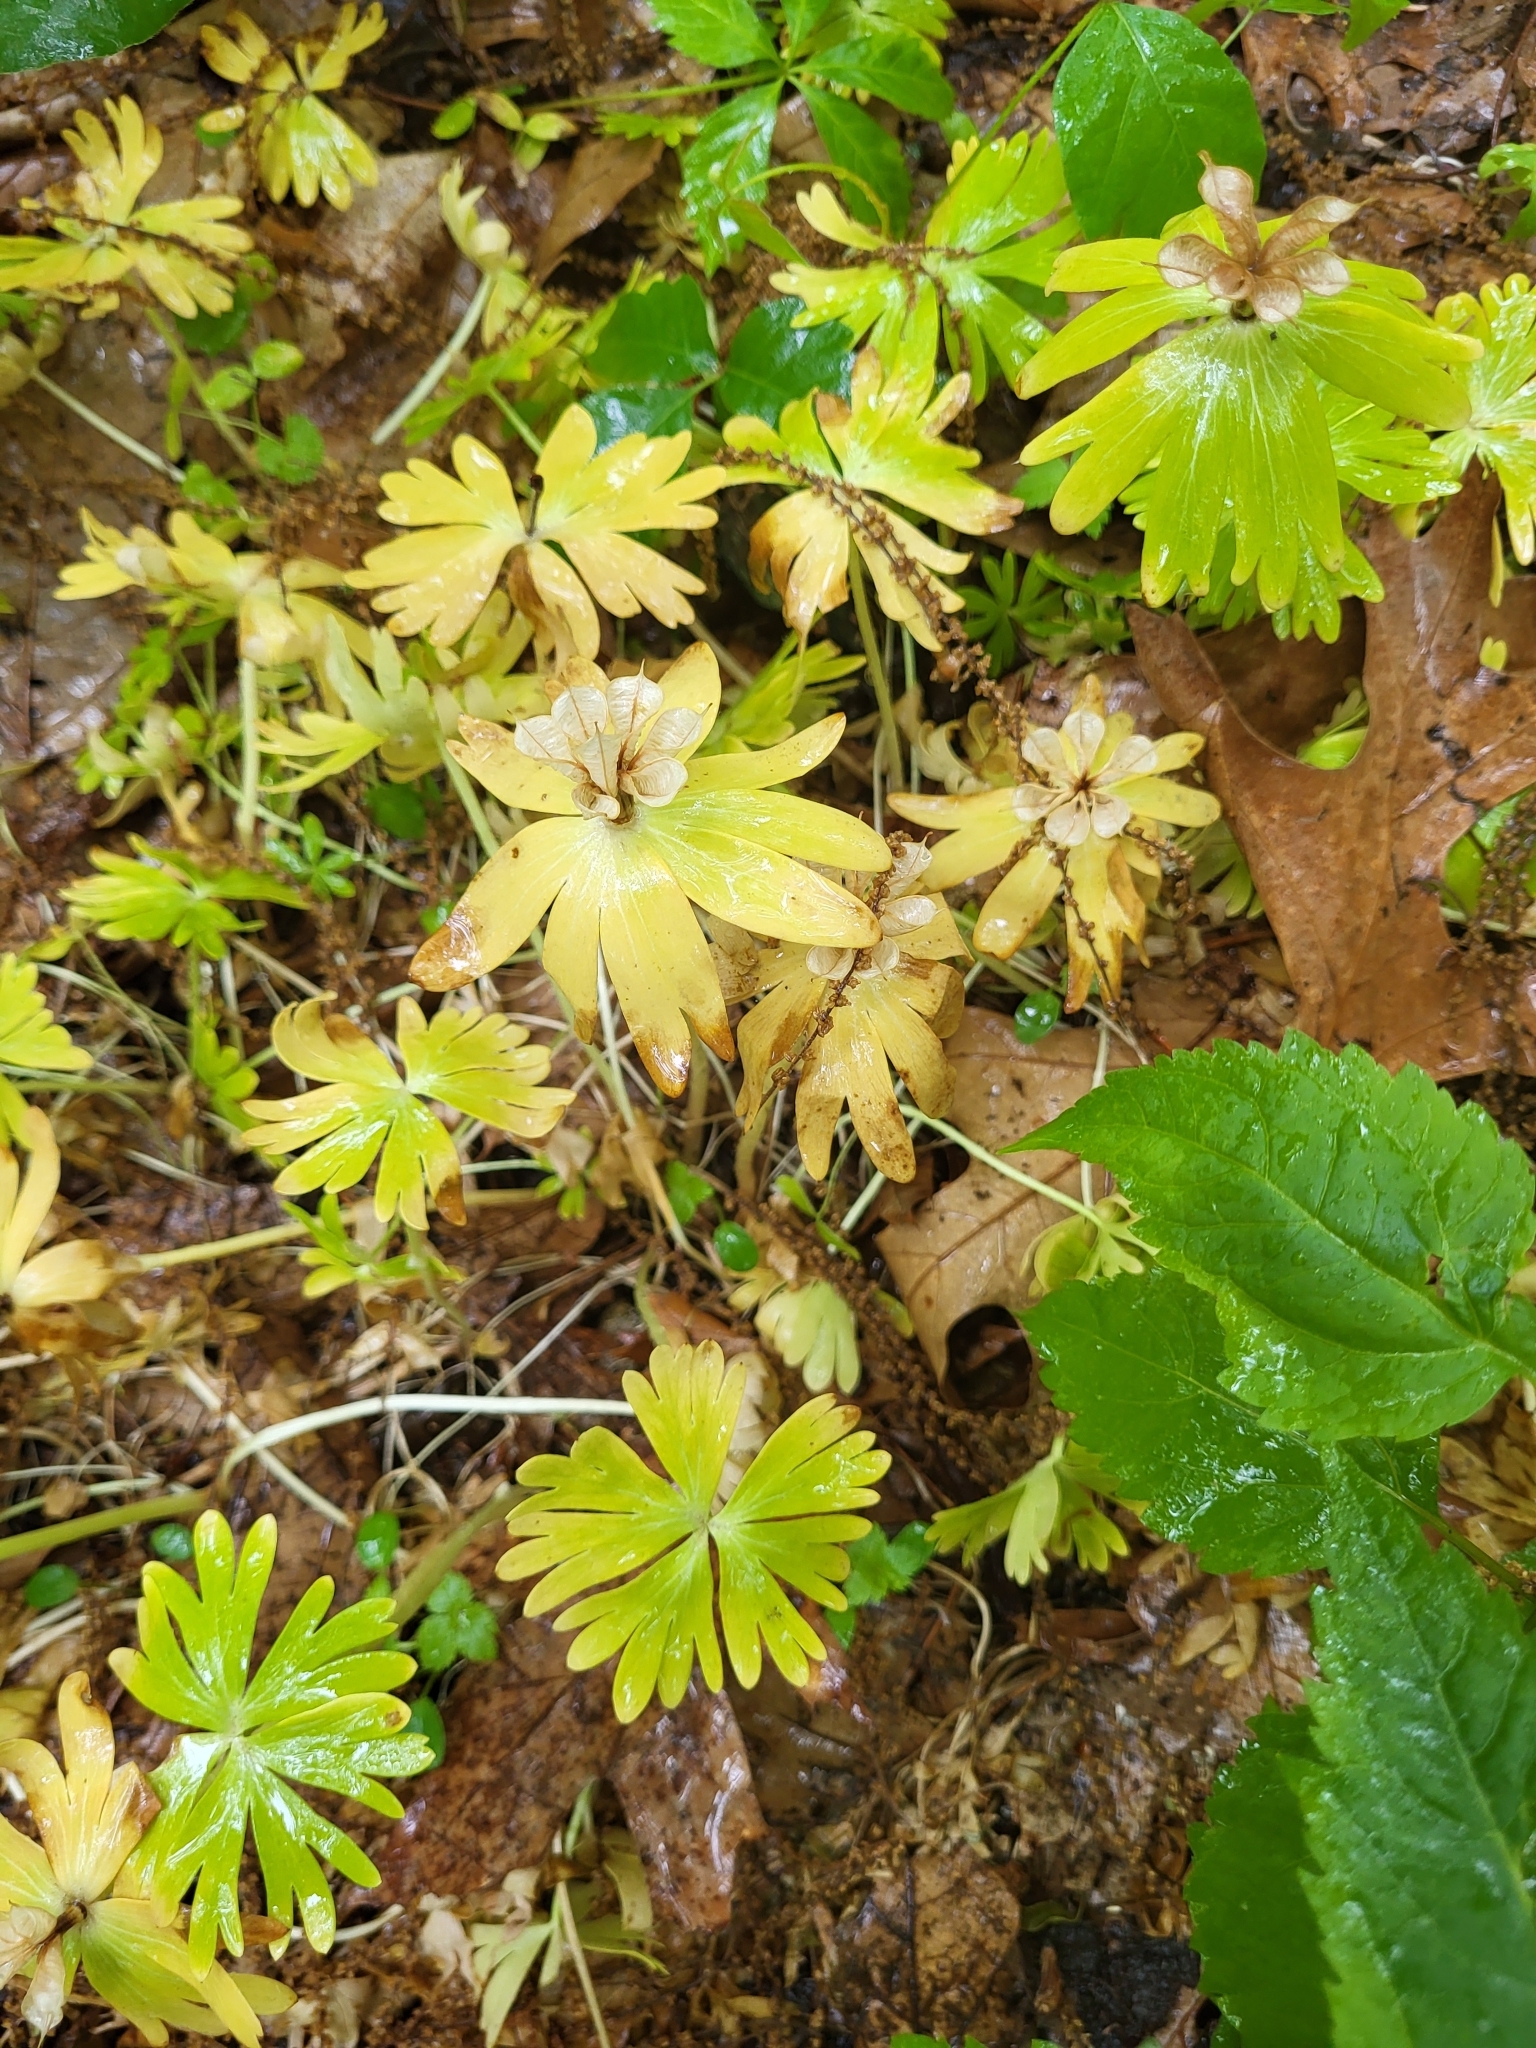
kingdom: Plantae
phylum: Tracheophyta
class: Magnoliopsida
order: Ranunculales
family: Ranunculaceae
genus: Eranthis
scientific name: Eranthis hyemalis
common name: Winter aconite
